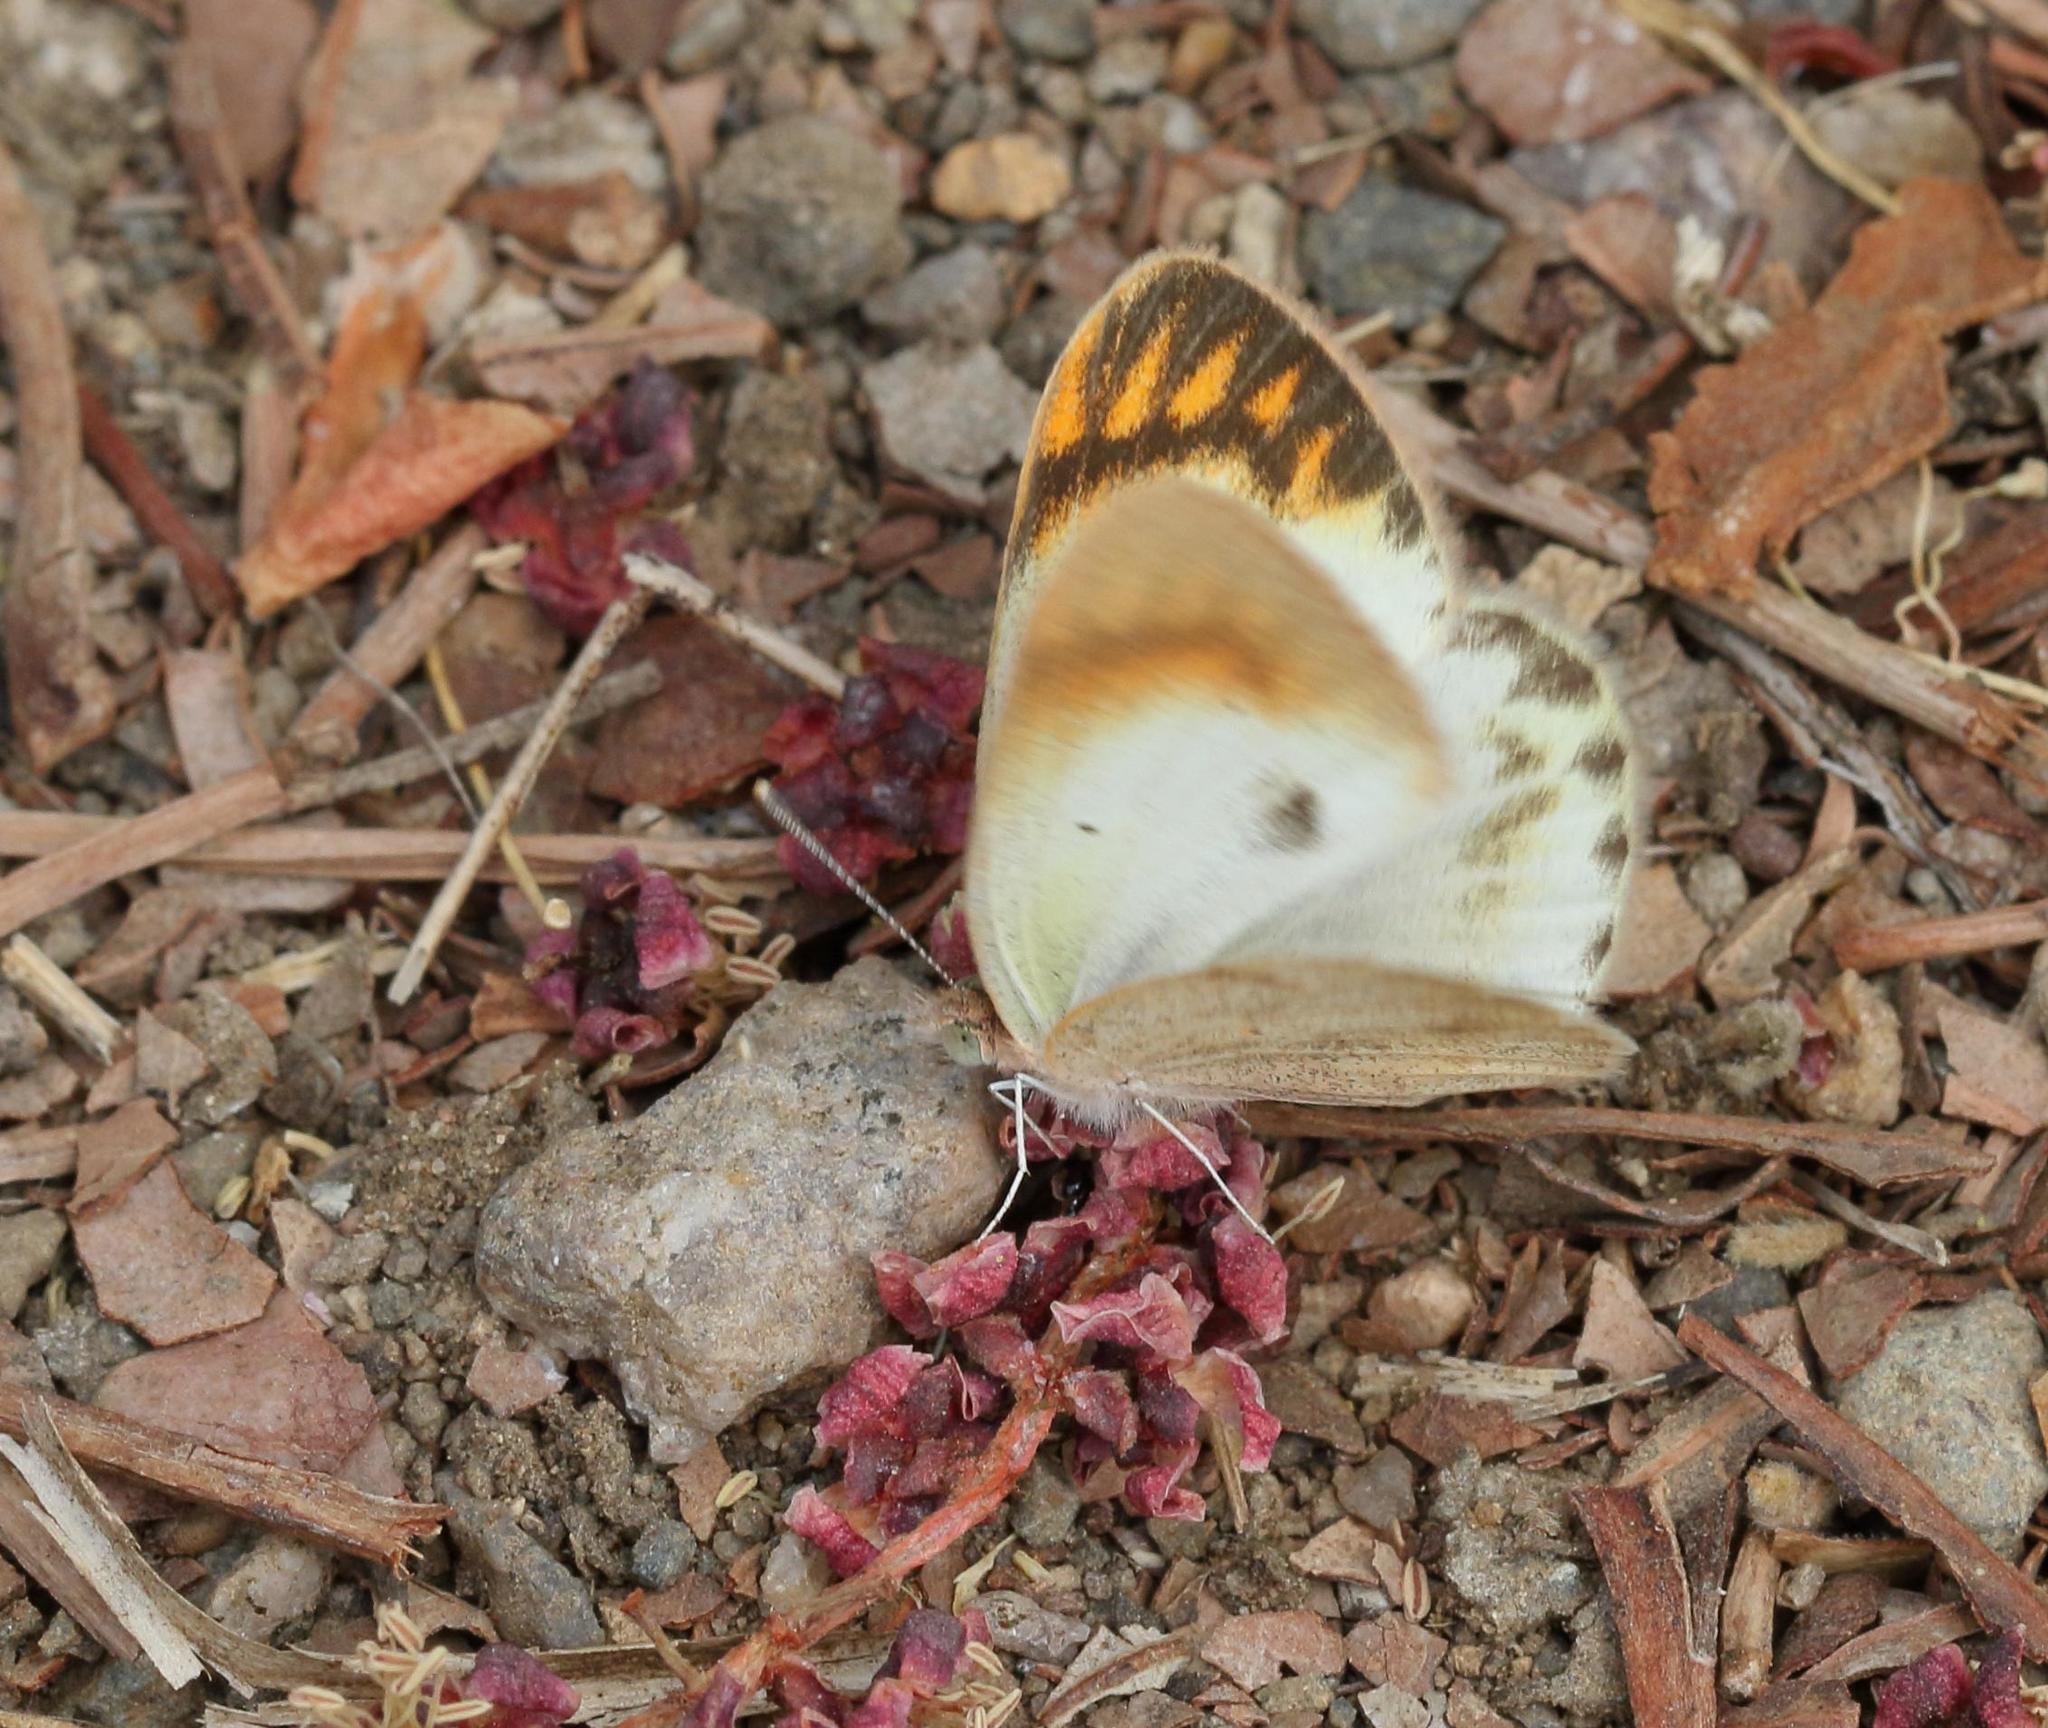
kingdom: Animalia
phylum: Arthropoda
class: Insecta
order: Lepidoptera
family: Pieridae
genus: Colotis
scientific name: Colotis evagore
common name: Desert orange-tip
